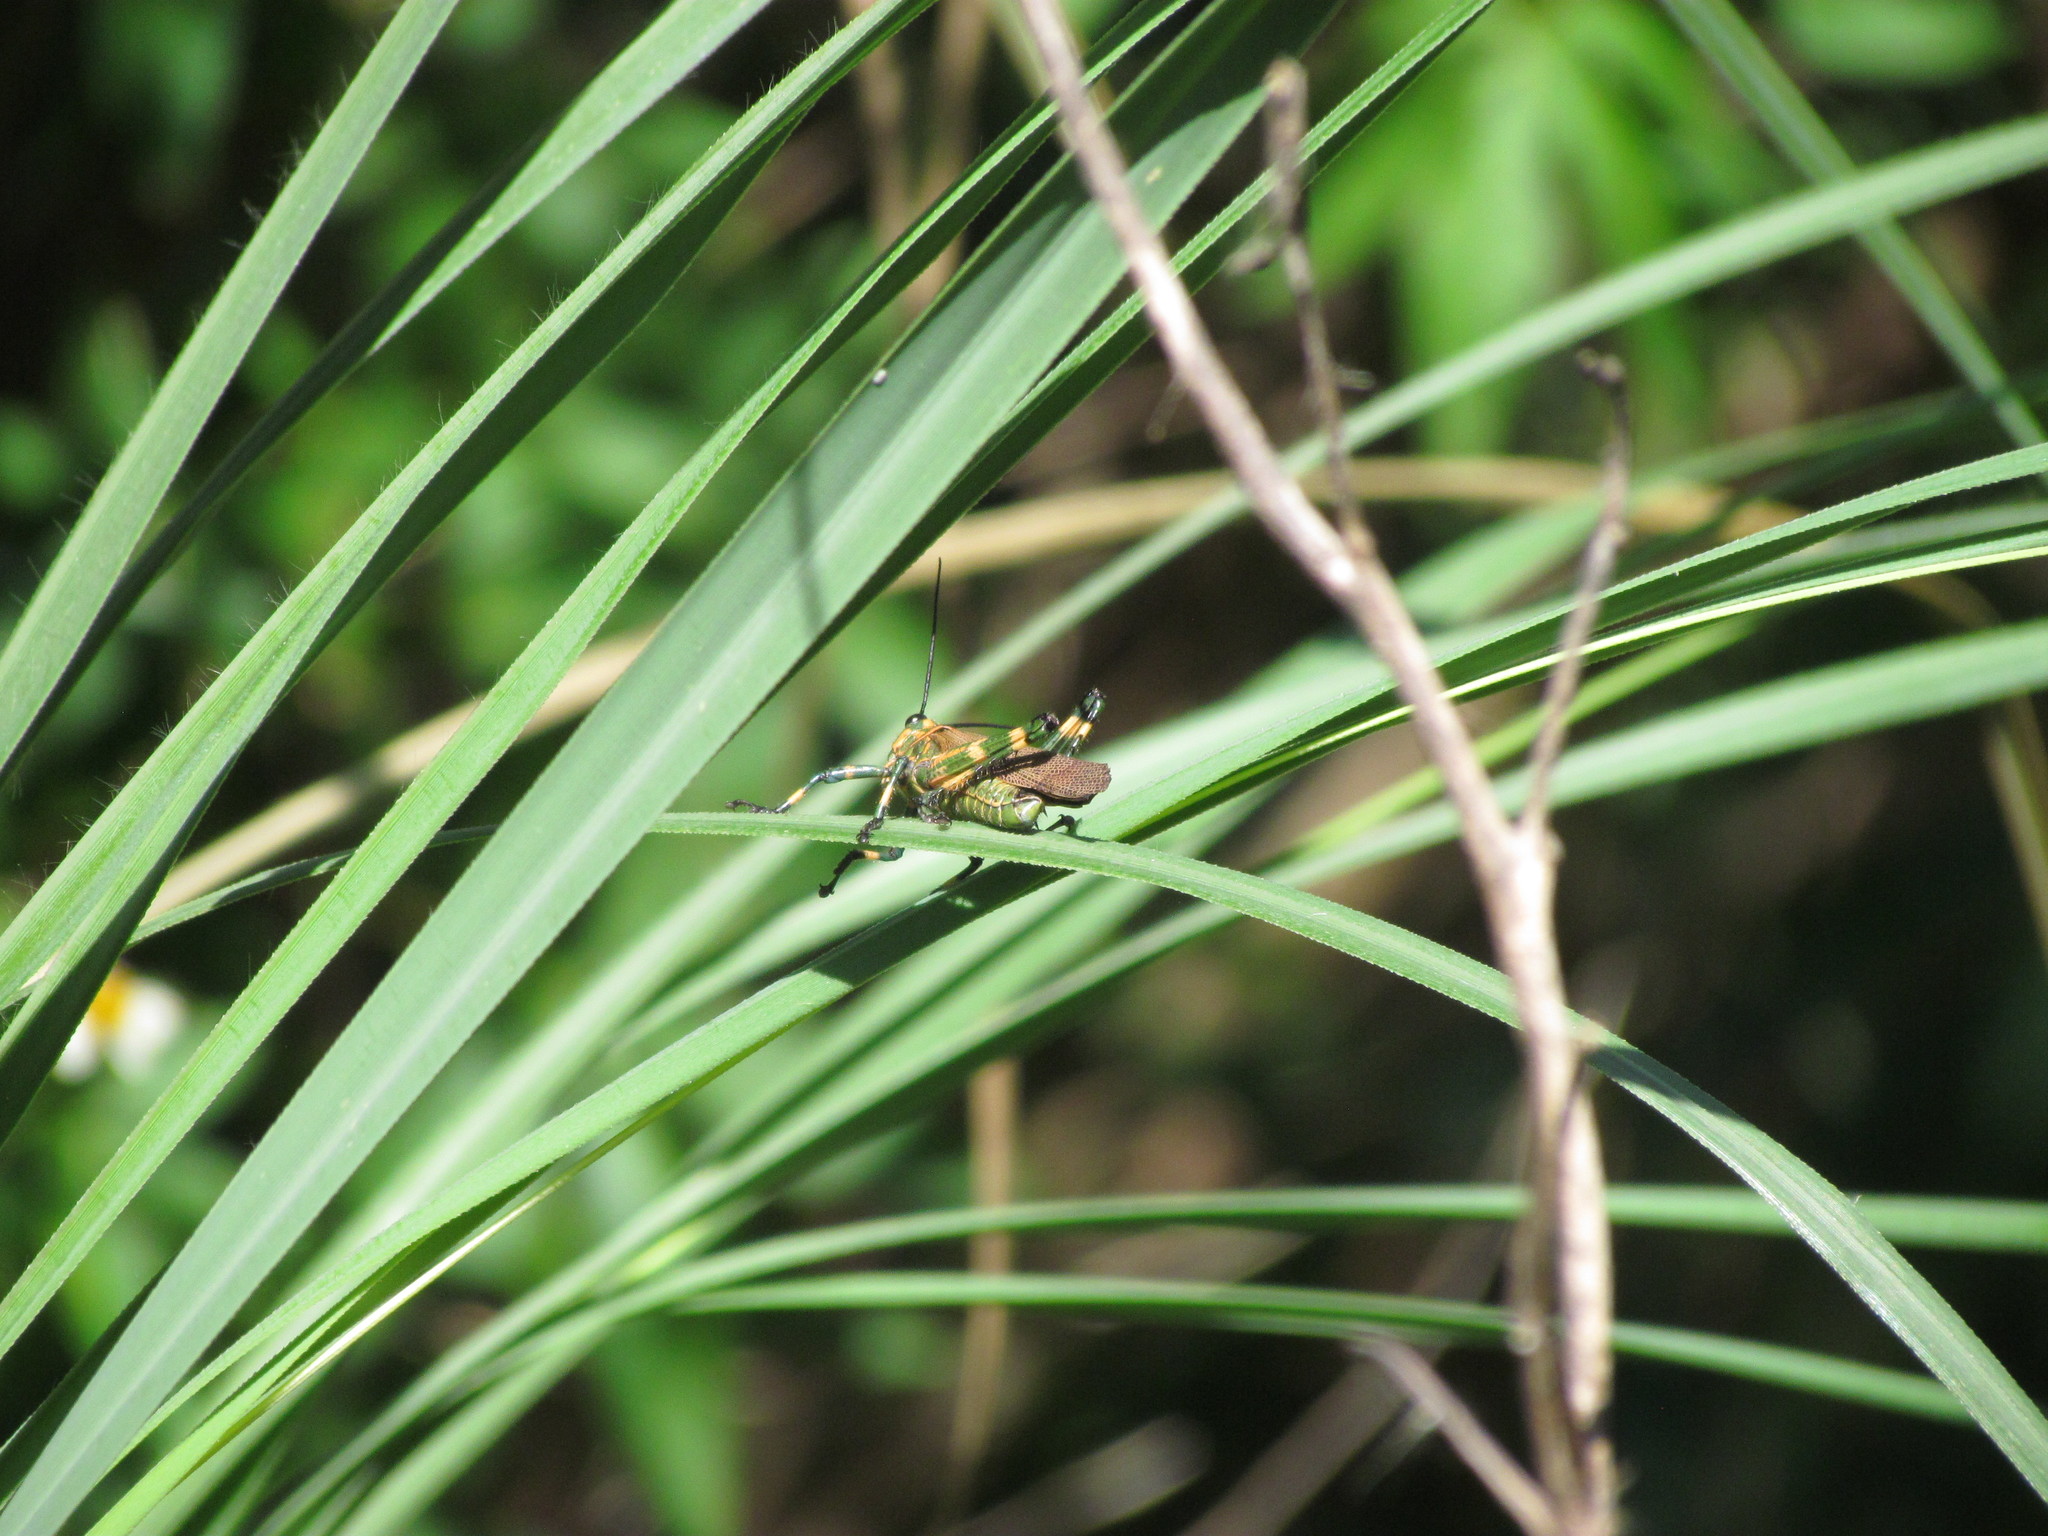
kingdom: Animalia
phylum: Arthropoda
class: Insecta
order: Orthoptera
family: Romaleidae
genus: Chromacris
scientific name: Chromacris speciosa
